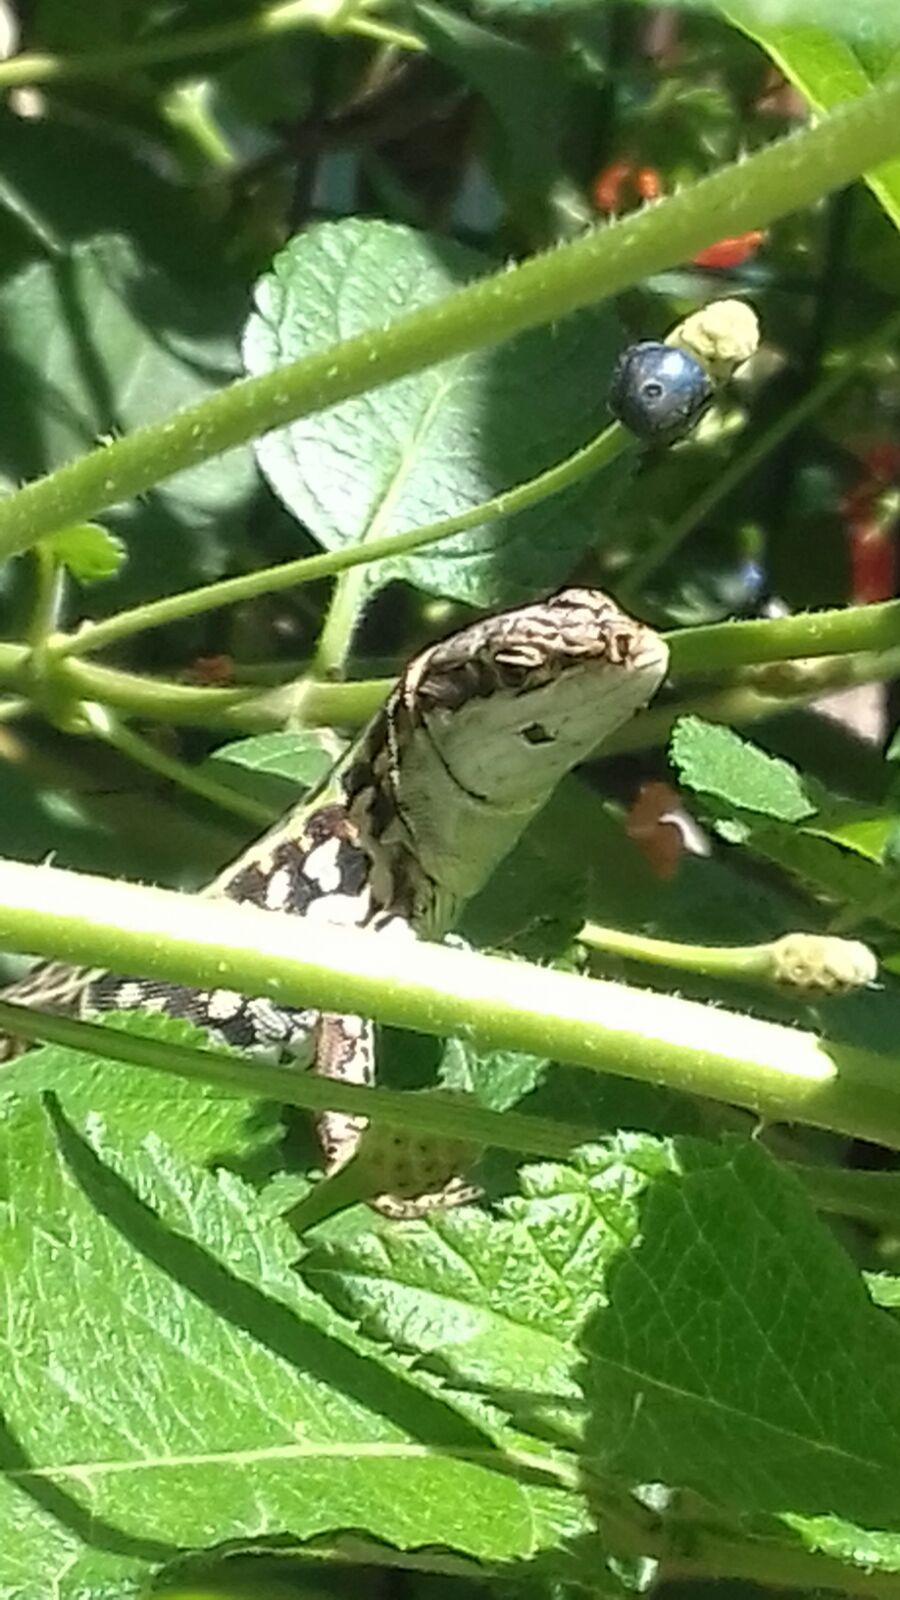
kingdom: Animalia
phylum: Chordata
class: Squamata
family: Lacertidae
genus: Podarcis
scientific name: Podarcis siculus
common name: Italian wall lizard
